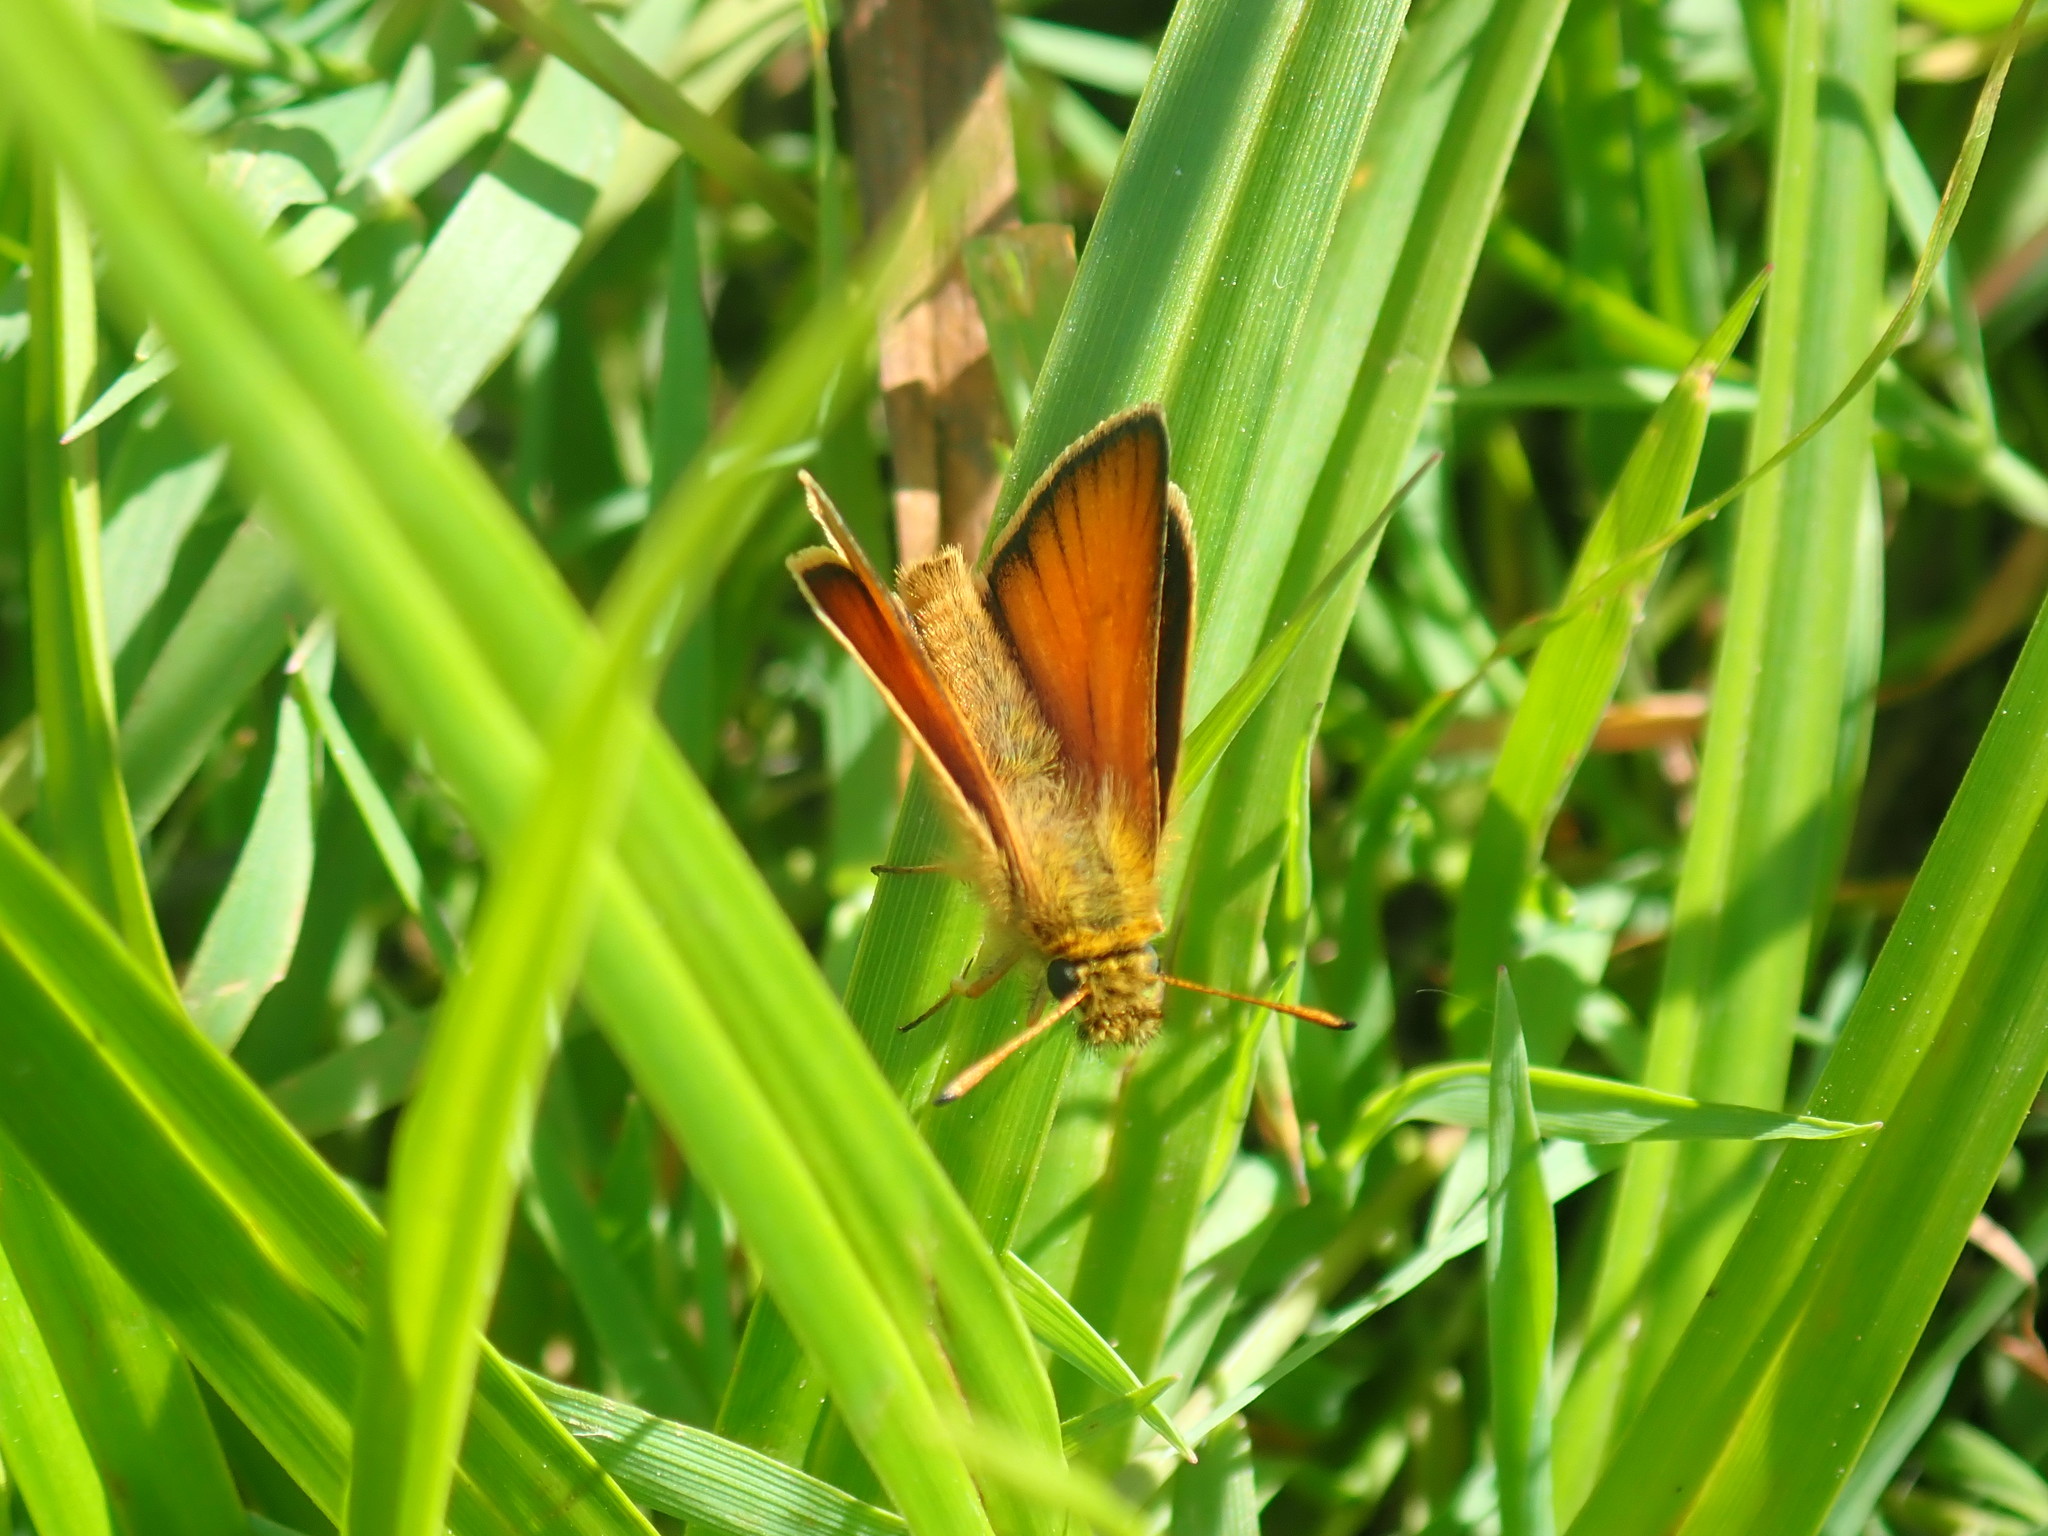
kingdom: Animalia
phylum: Arthropoda
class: Insecta
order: Lepidoptera
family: Hesperiidae
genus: Thymelicus
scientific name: Thymelicus lineola
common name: Essex skipper
